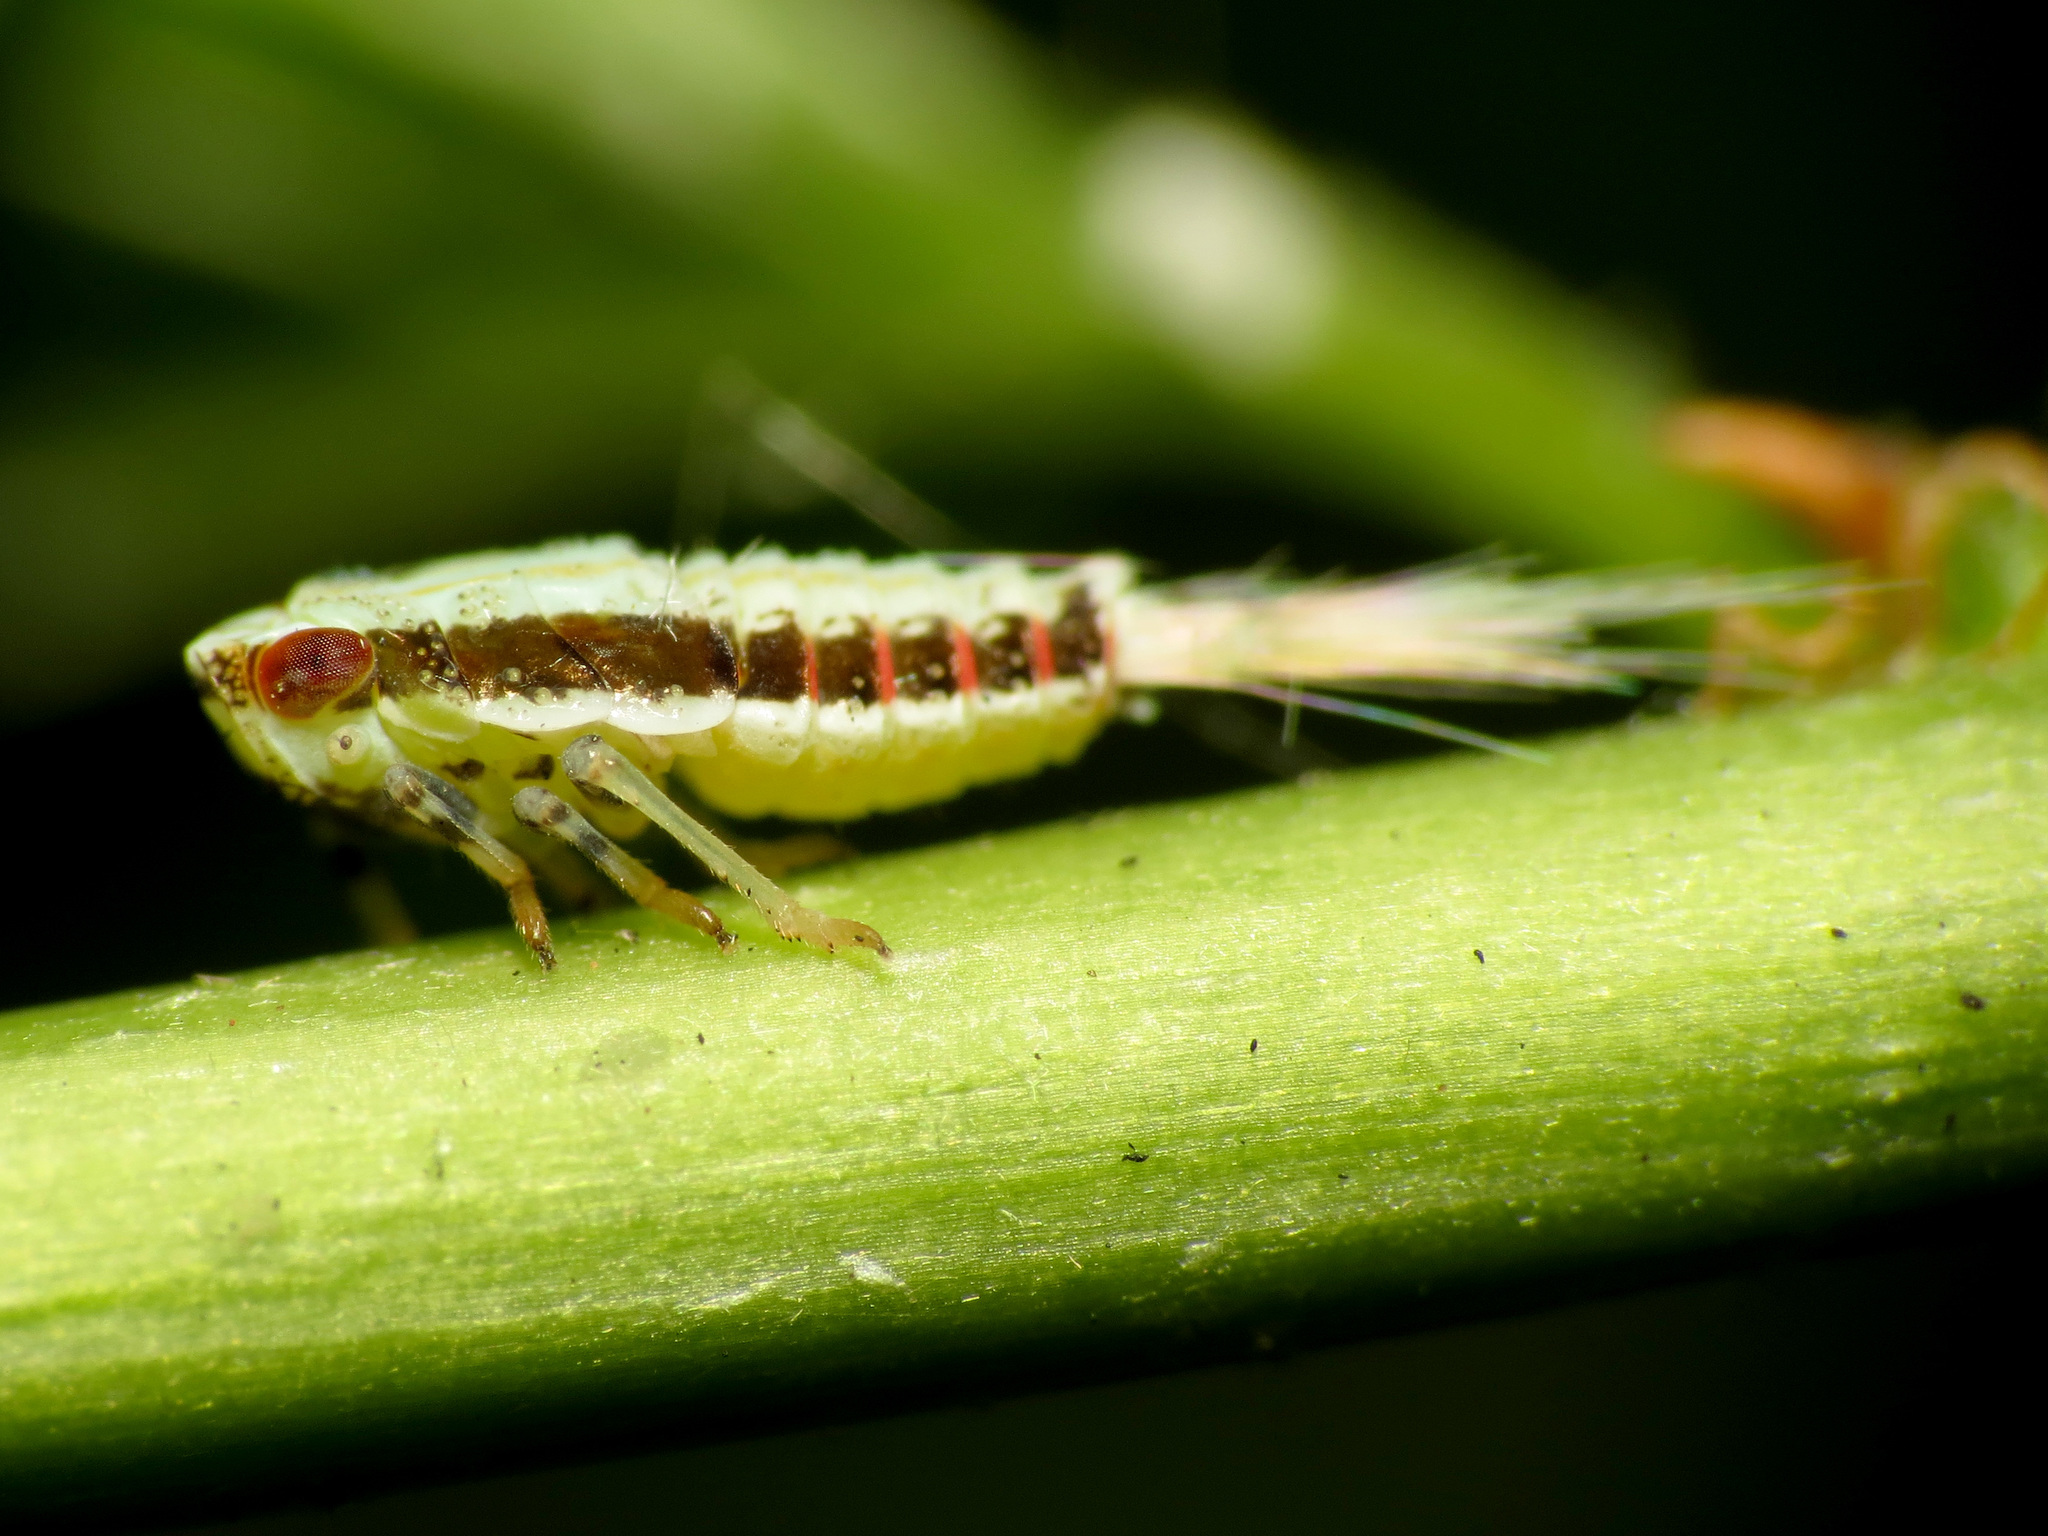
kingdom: Animalia
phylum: Arthropoda
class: Insecta
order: Hemiptera
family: Issidae
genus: Thionia
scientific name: Thionia bullata
